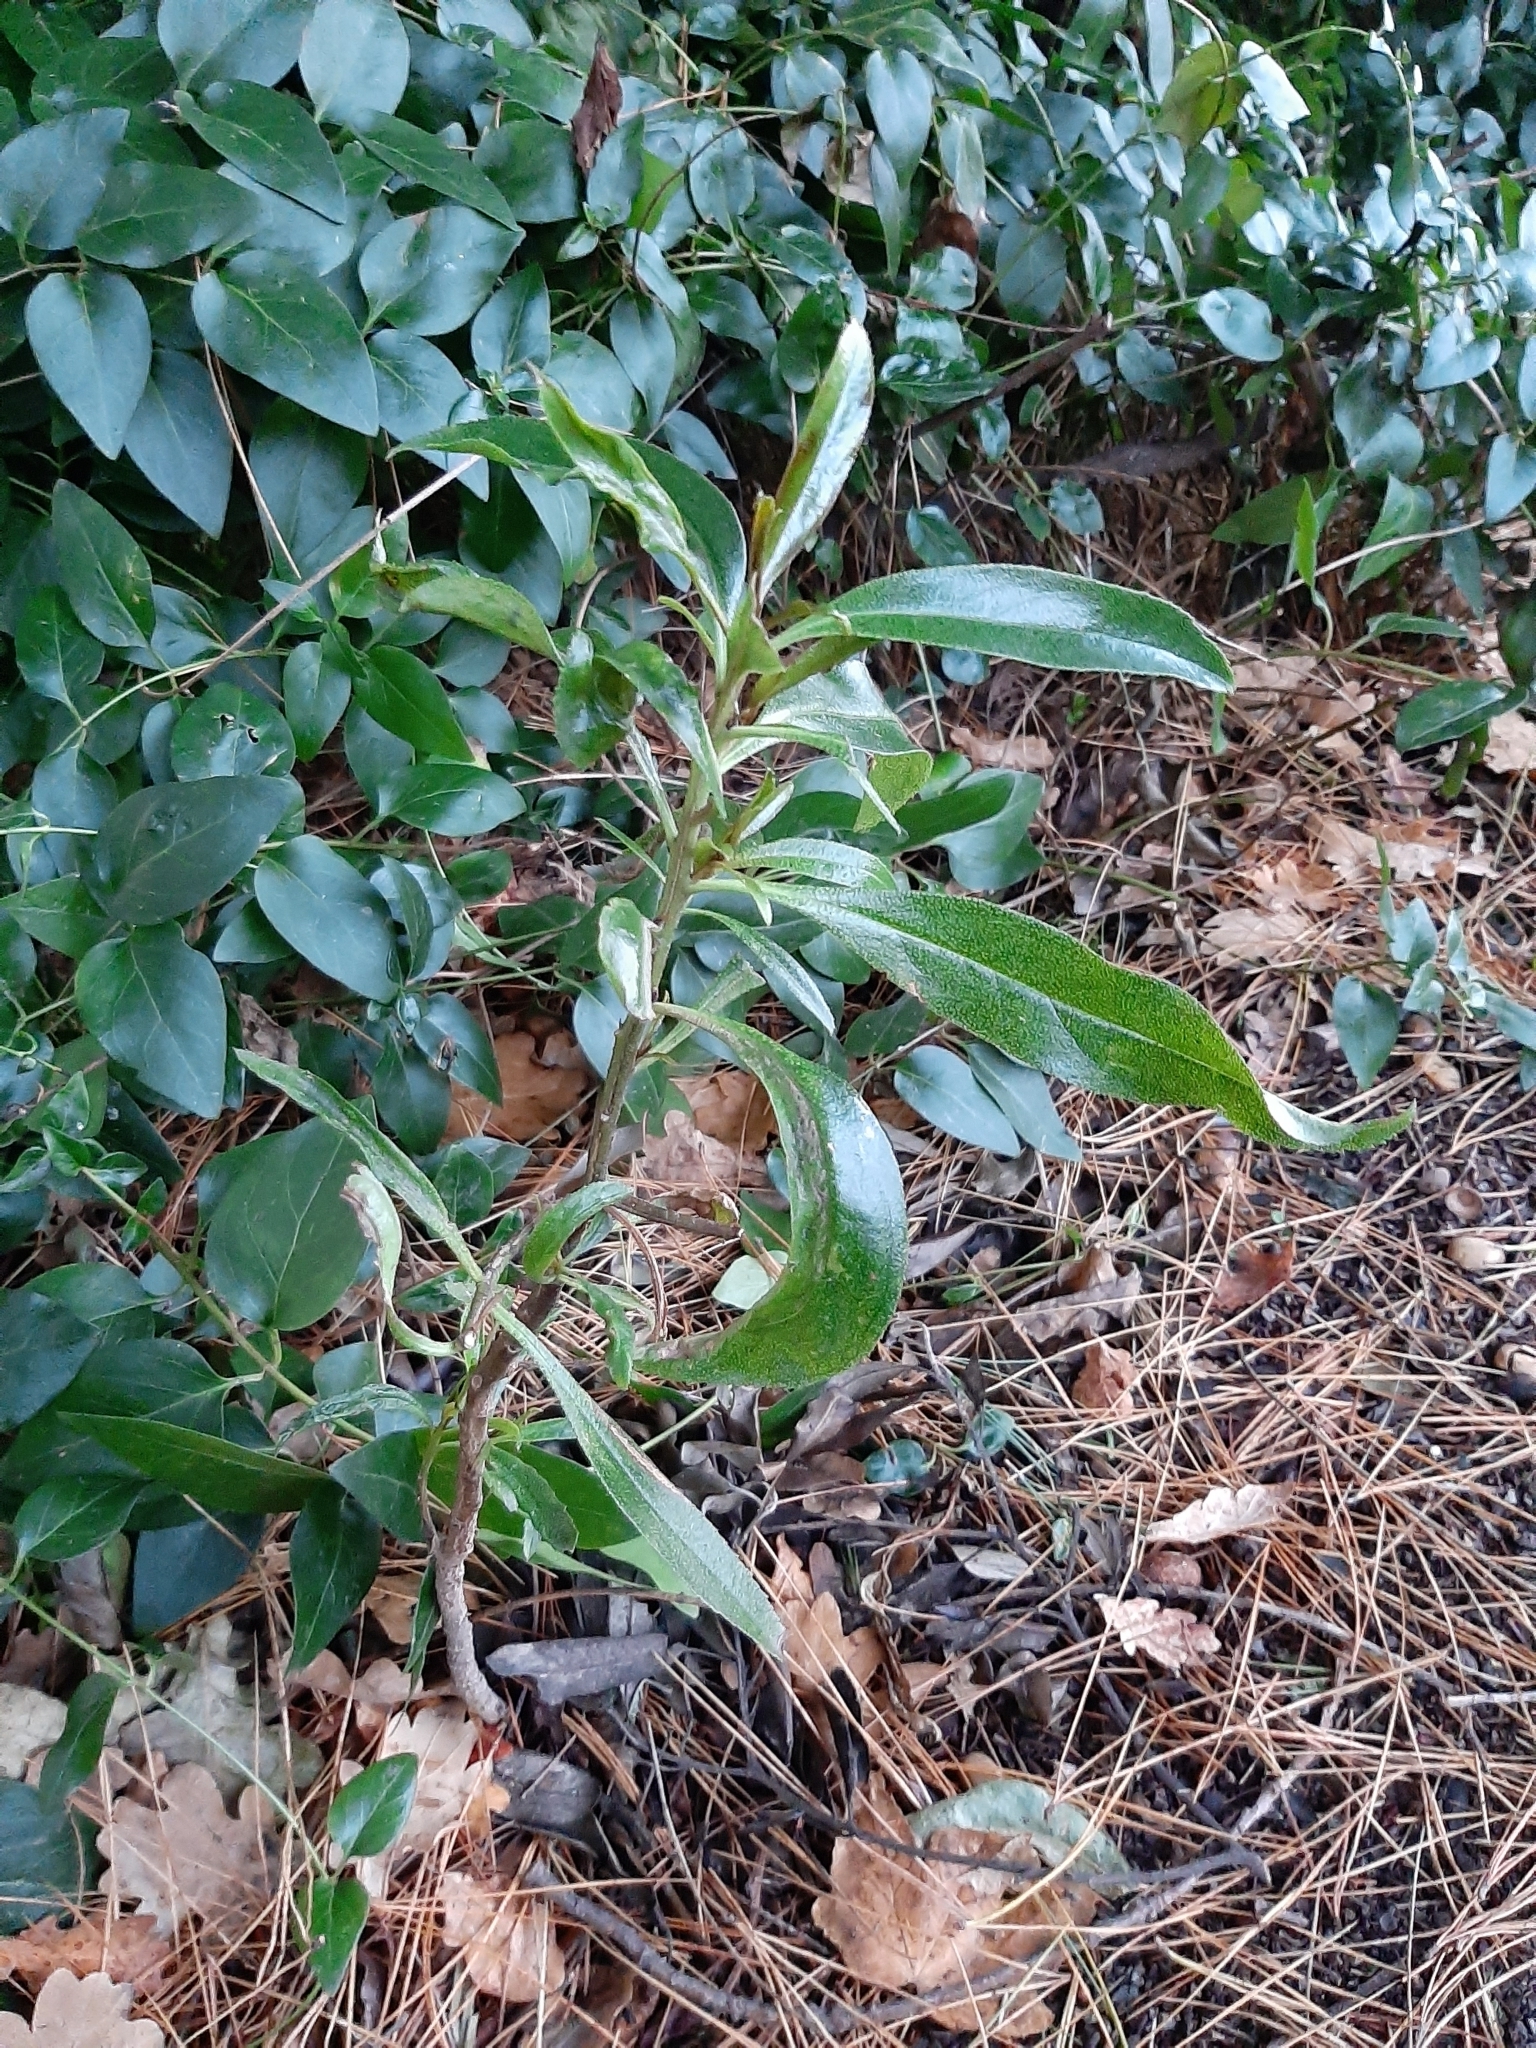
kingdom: Plantae
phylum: Tracheophyta
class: Magnoliopsida
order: Lamiales
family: Scrophulariaceae
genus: Myoporum
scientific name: Myoporum laetum
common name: Ngaio tree
